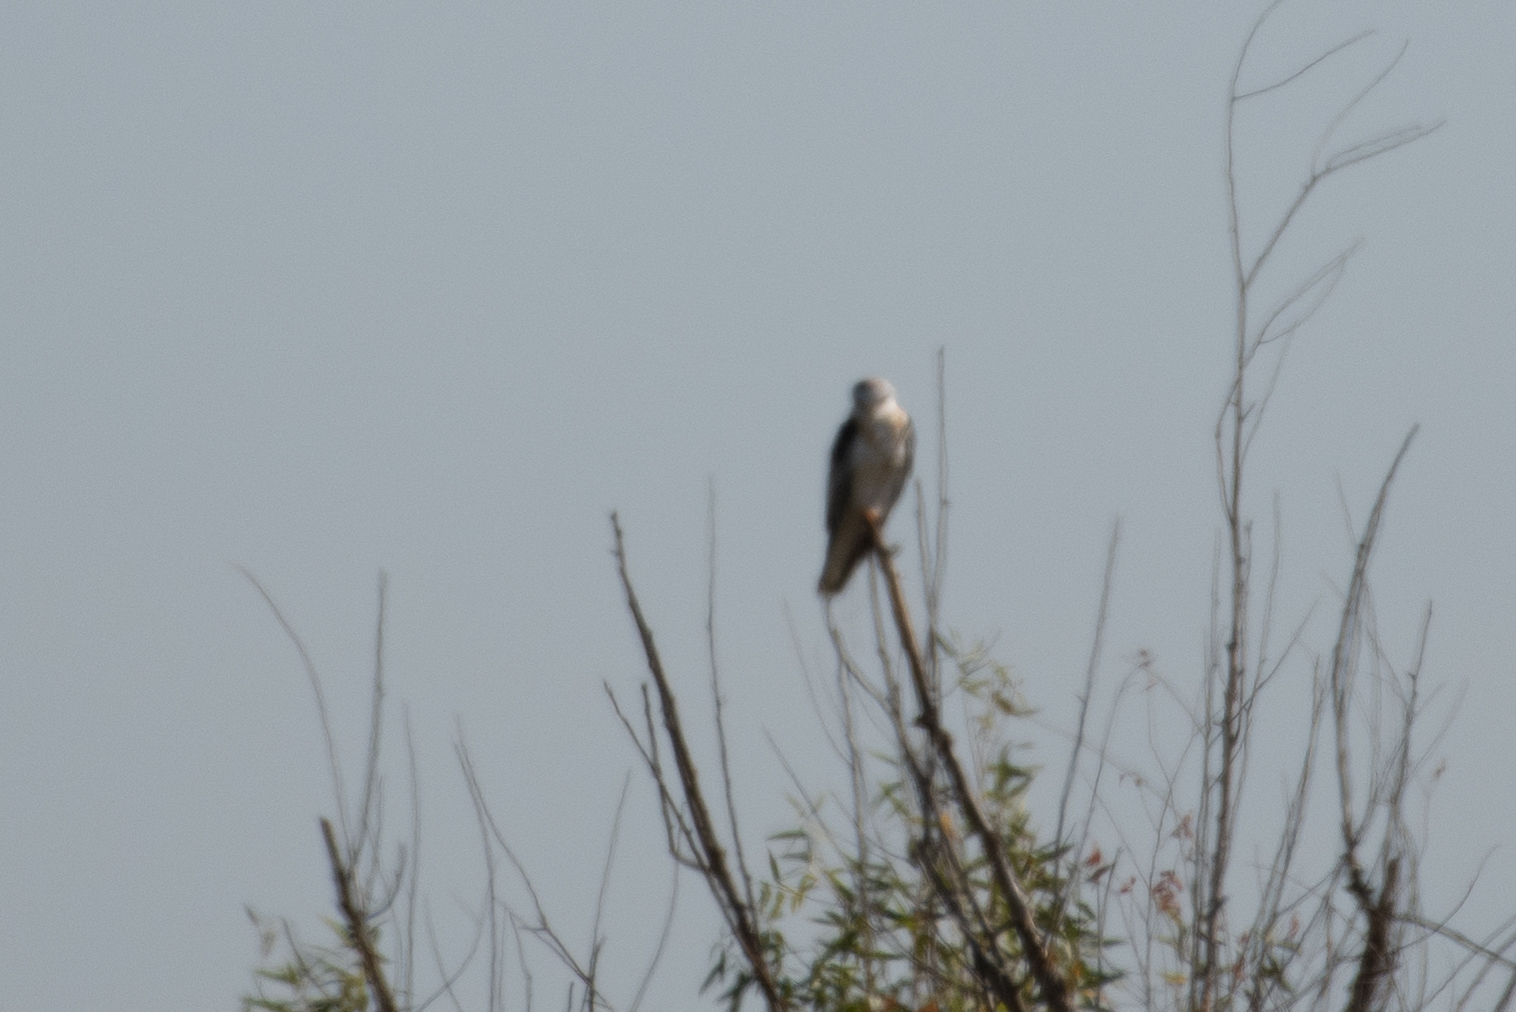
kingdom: Animalia
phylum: Chordata
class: Aves
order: Accipitriformes
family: Accipitridae
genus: Elanus
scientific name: Elanus leucurus
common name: White-tailed kite
